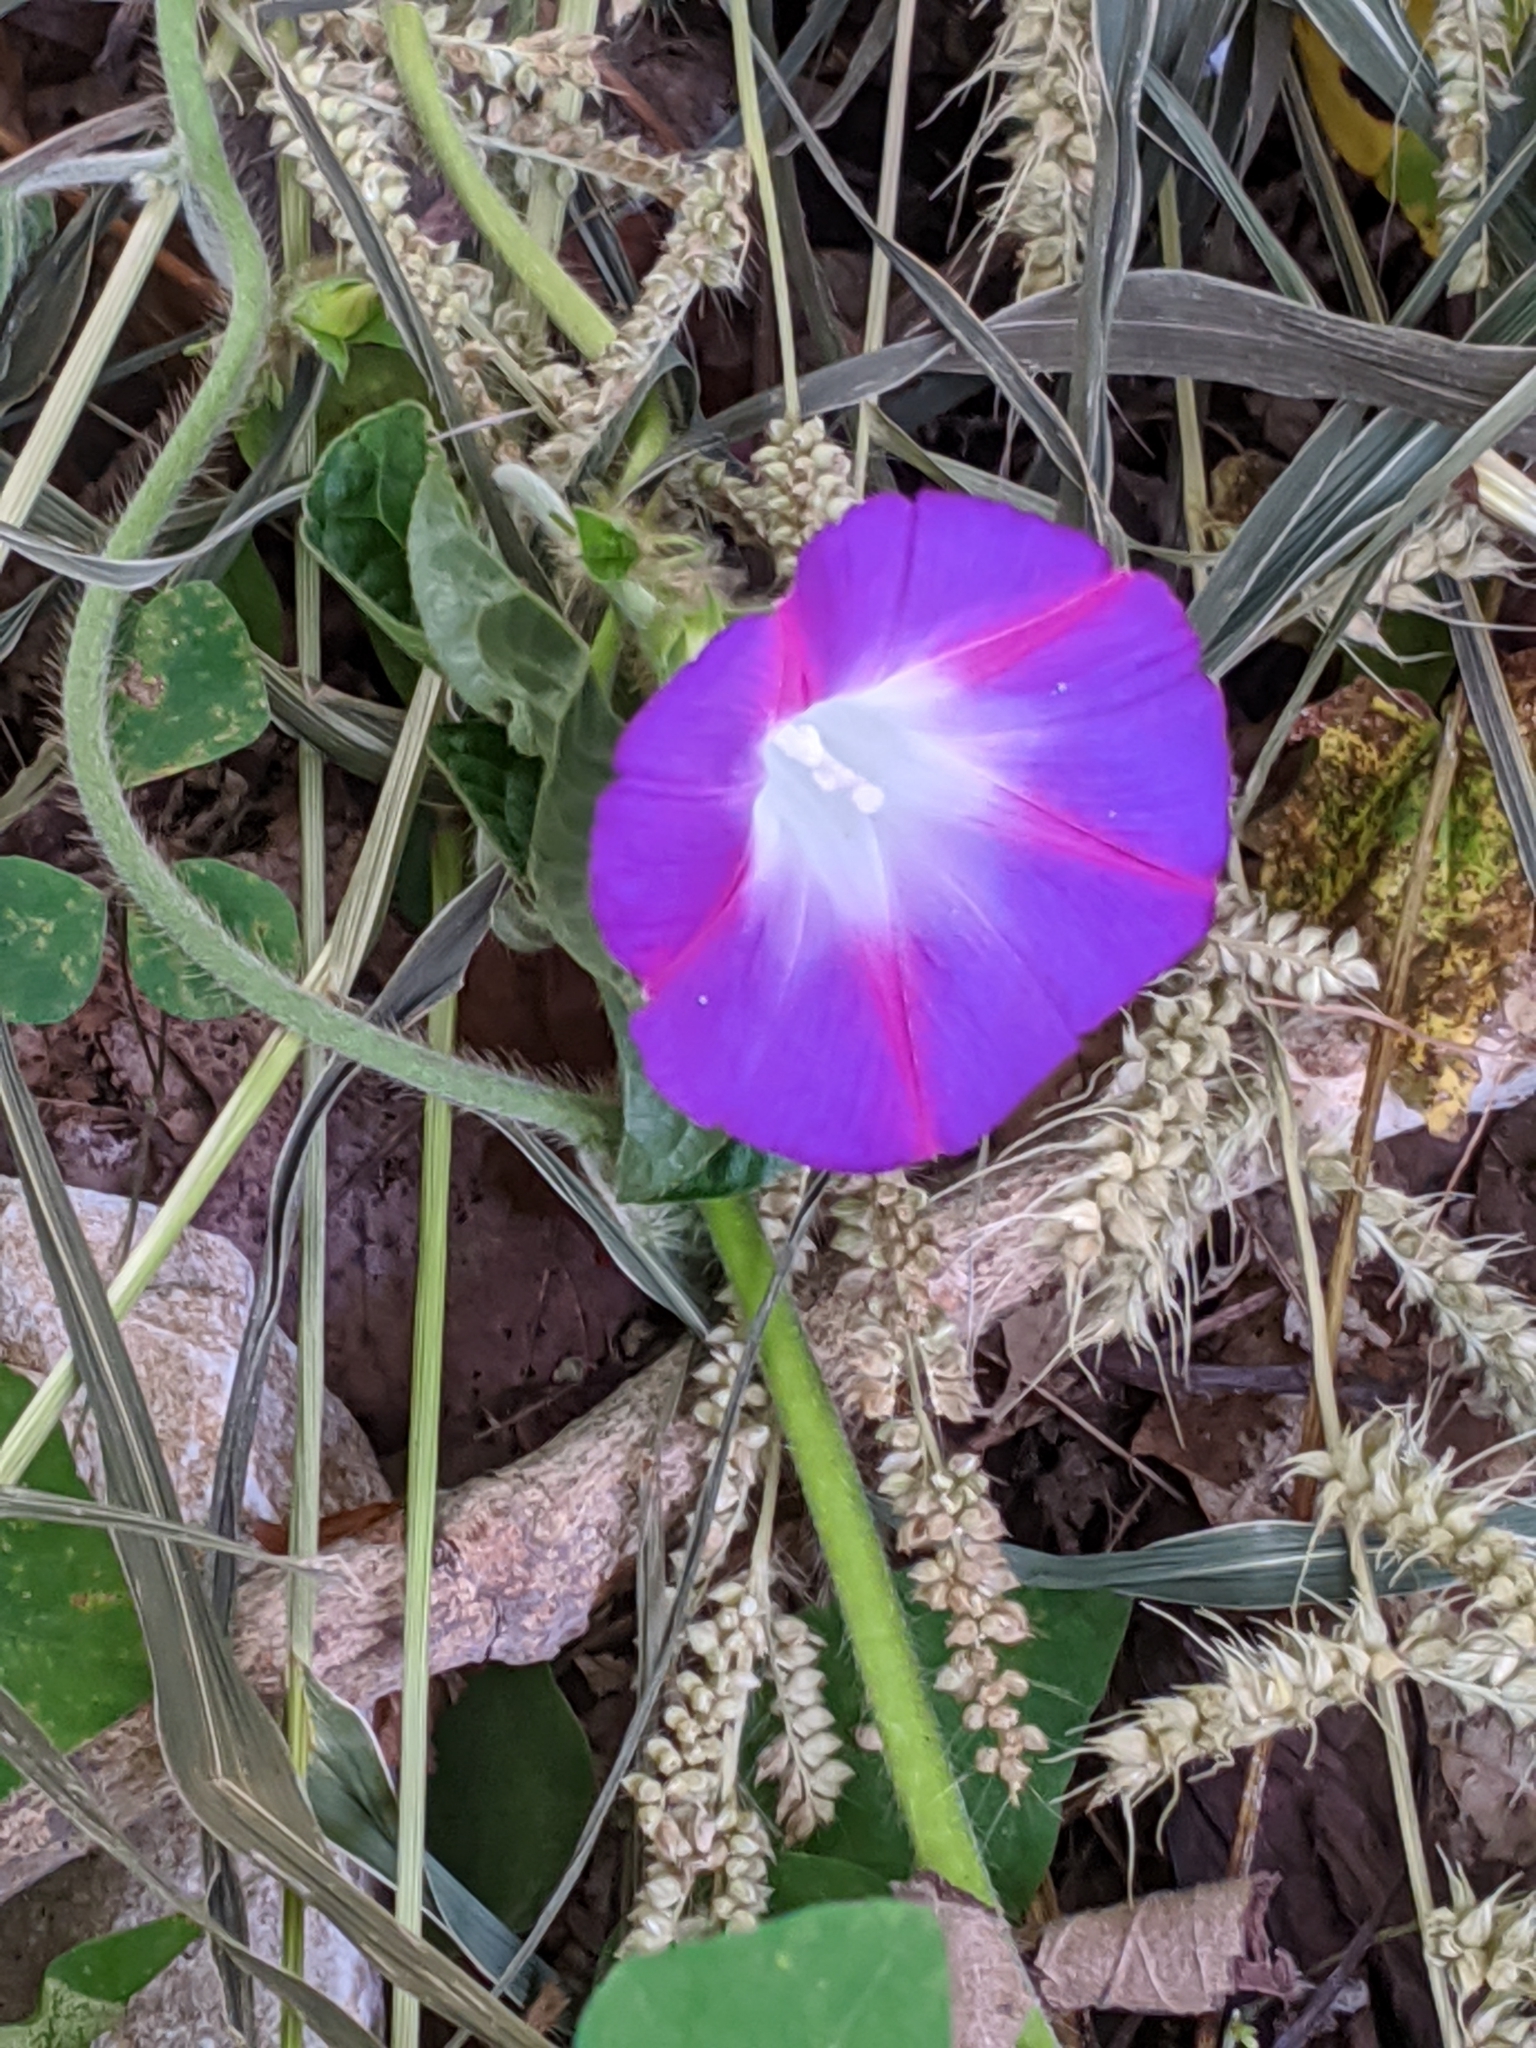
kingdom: Plantae
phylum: Tracheophyta
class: Magnoliopsida
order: Solanales
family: Convolvulaceae
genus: Ipomoea
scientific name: Ipomoea purpurea
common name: Common morning-glory
